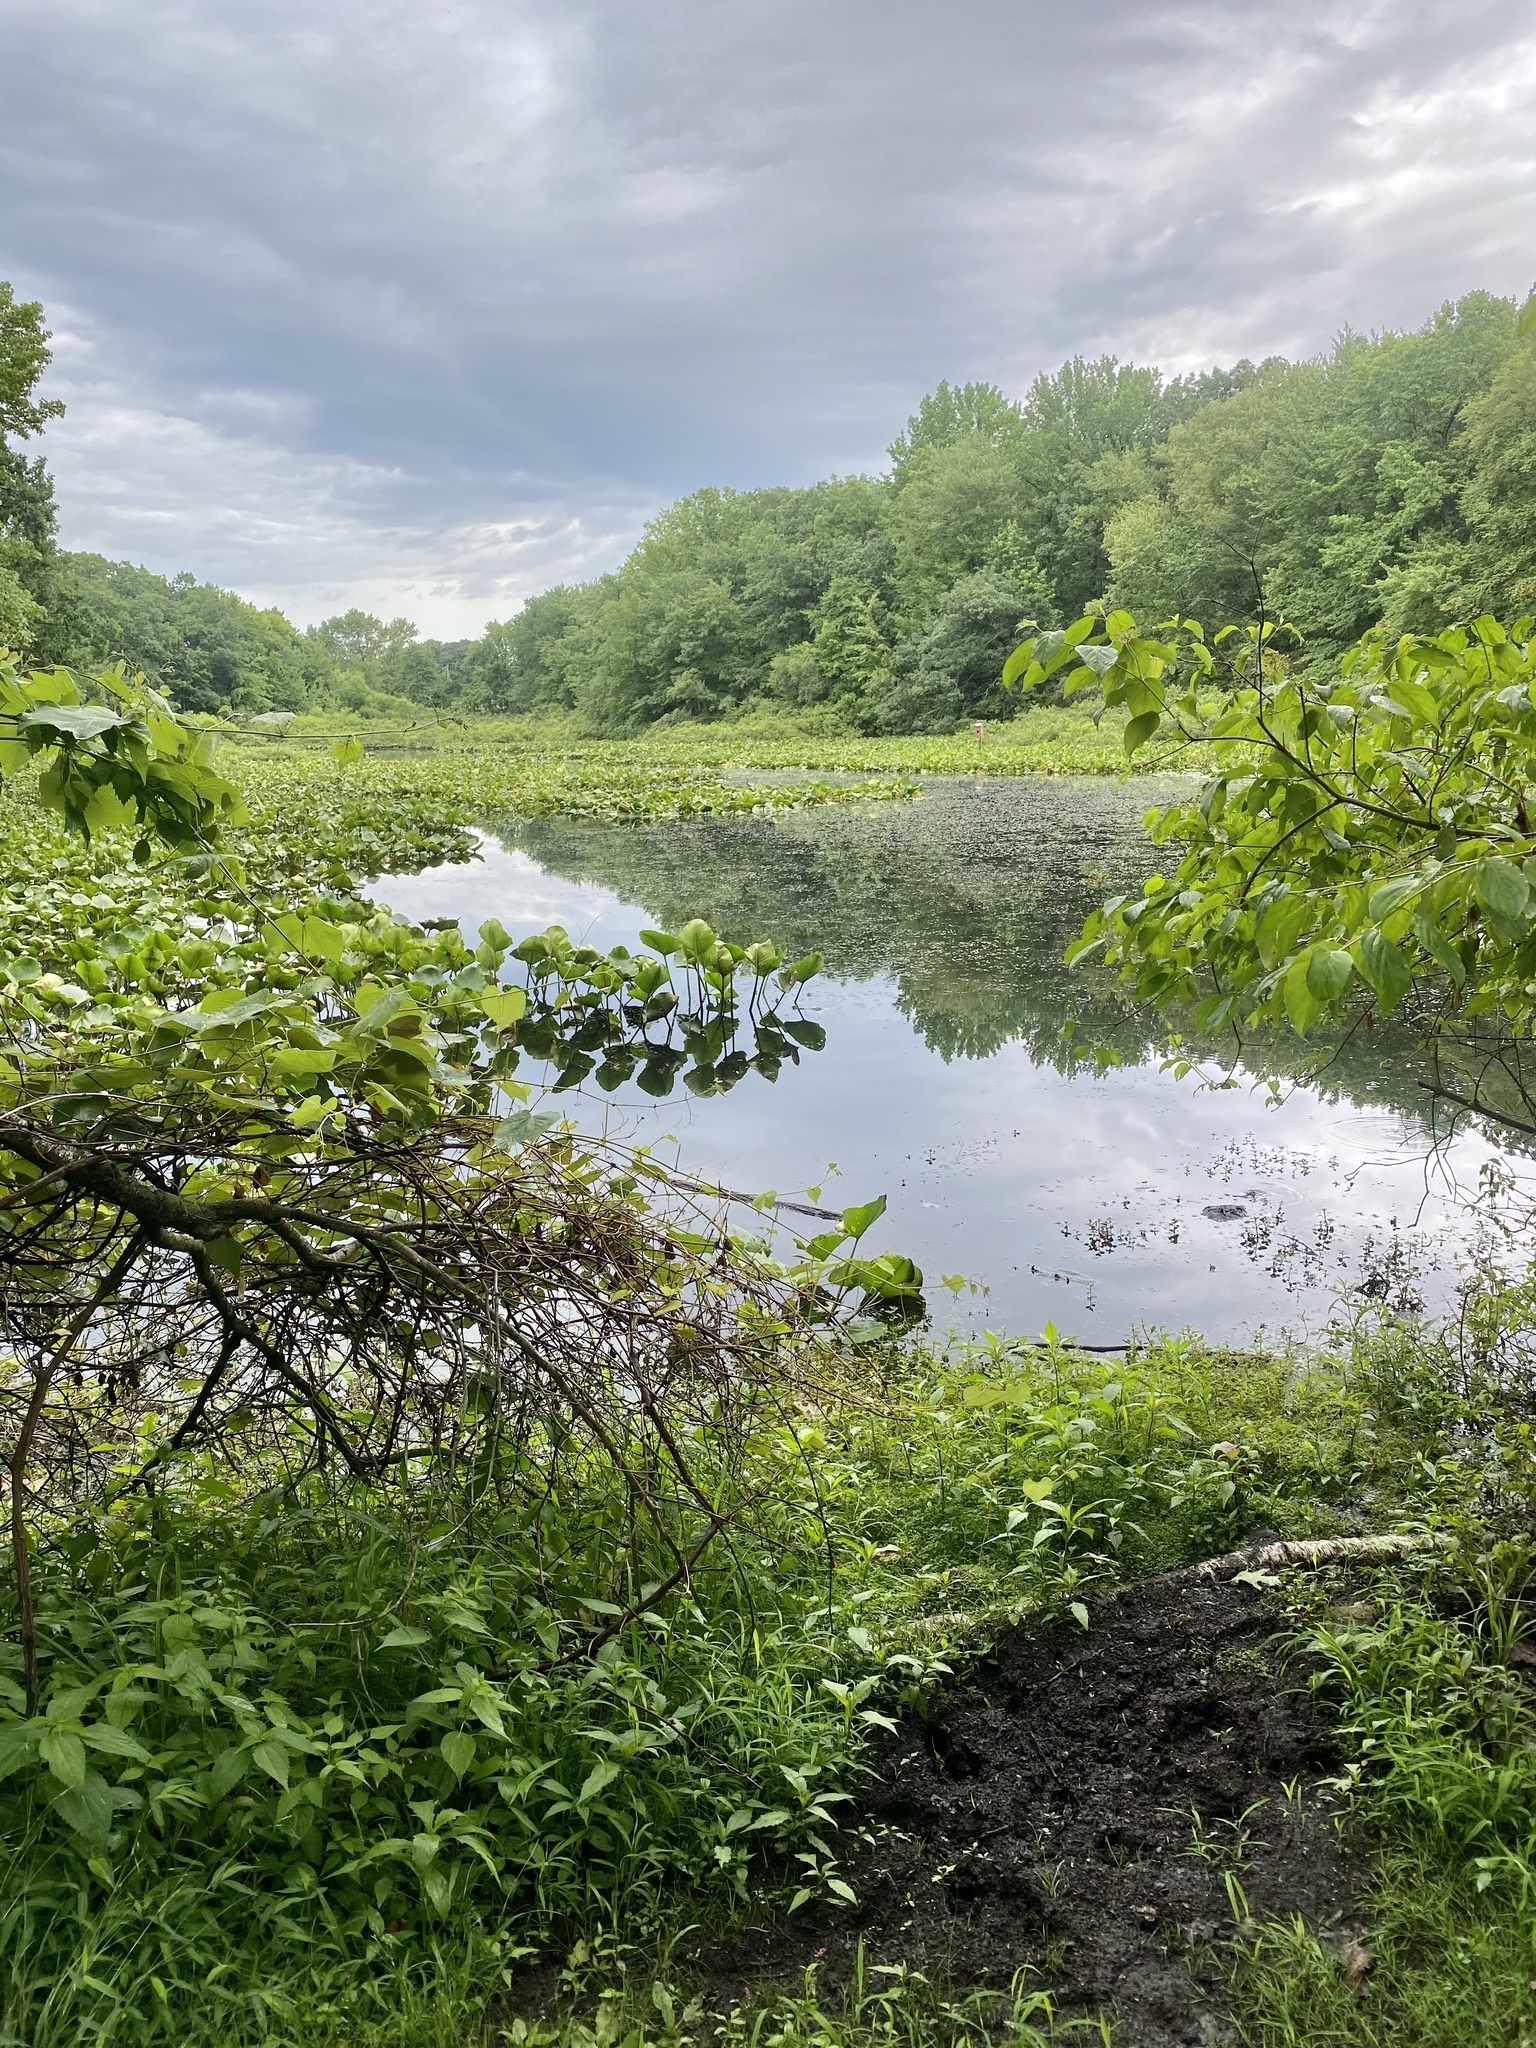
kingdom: Plantae
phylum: Tracheophyta
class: Magnoliopsida
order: Ericales
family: Clethraceae
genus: Clethra
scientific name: Clethra alnifolia
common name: Sweet pepperbush
